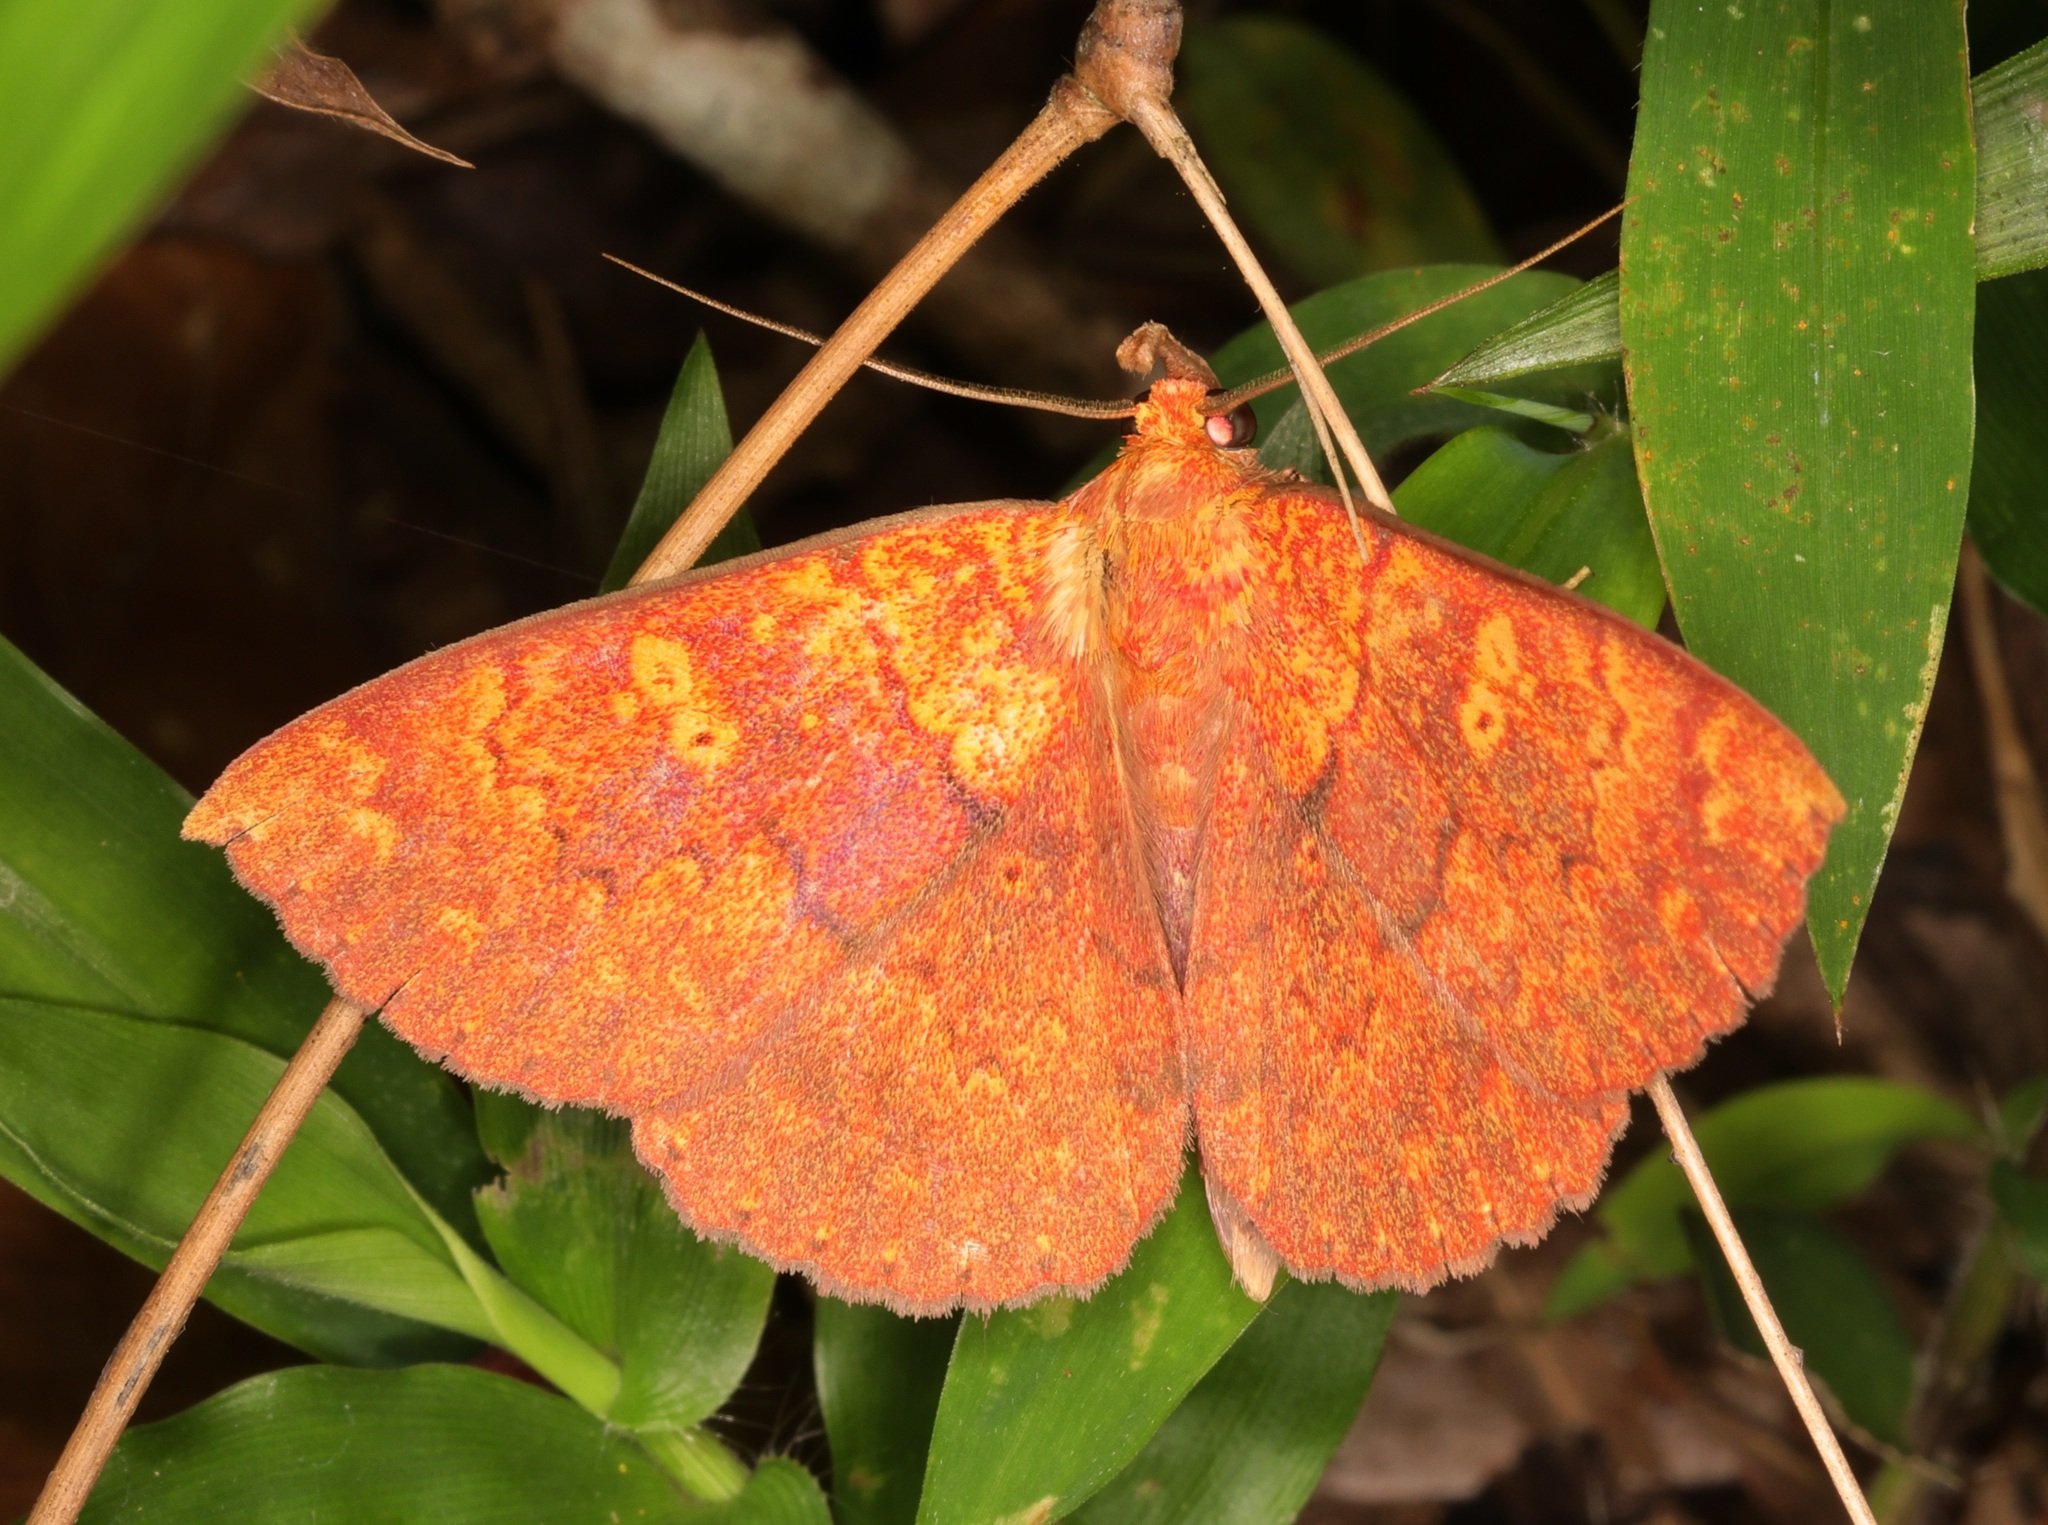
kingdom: Animalia
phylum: Arthropoda
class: Insecta
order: Lepidoptera
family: Erebidae
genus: Singara
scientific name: Singara diversalis
